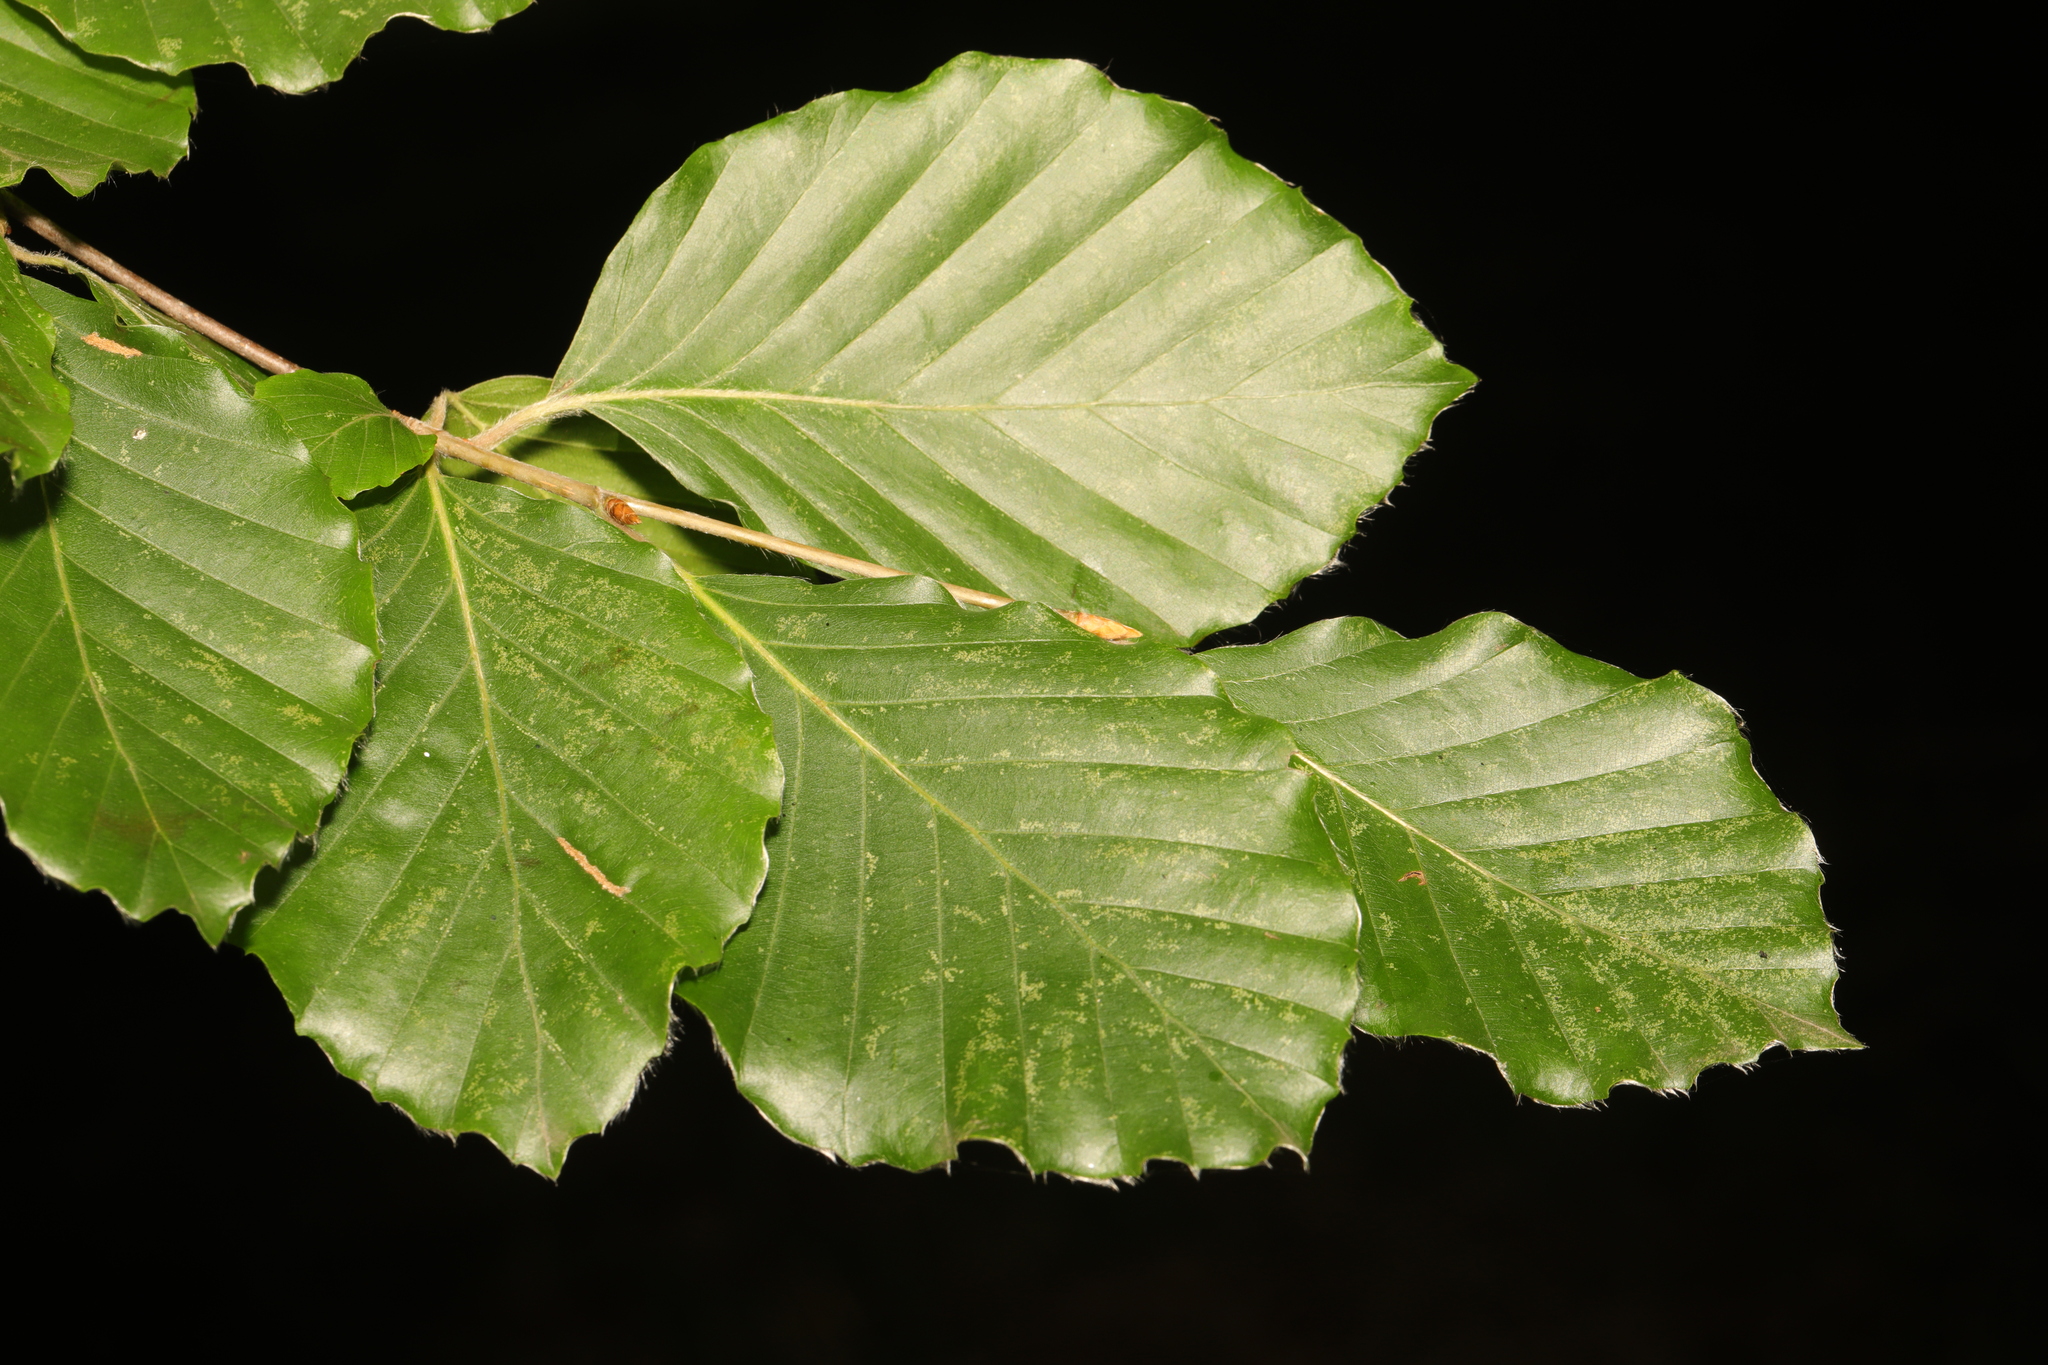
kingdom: Plantae
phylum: Tracheophyta
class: Magnoliopsida
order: Fagales
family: Fagaceae
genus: Fagus
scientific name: Fagus sylvatica
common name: Beech
